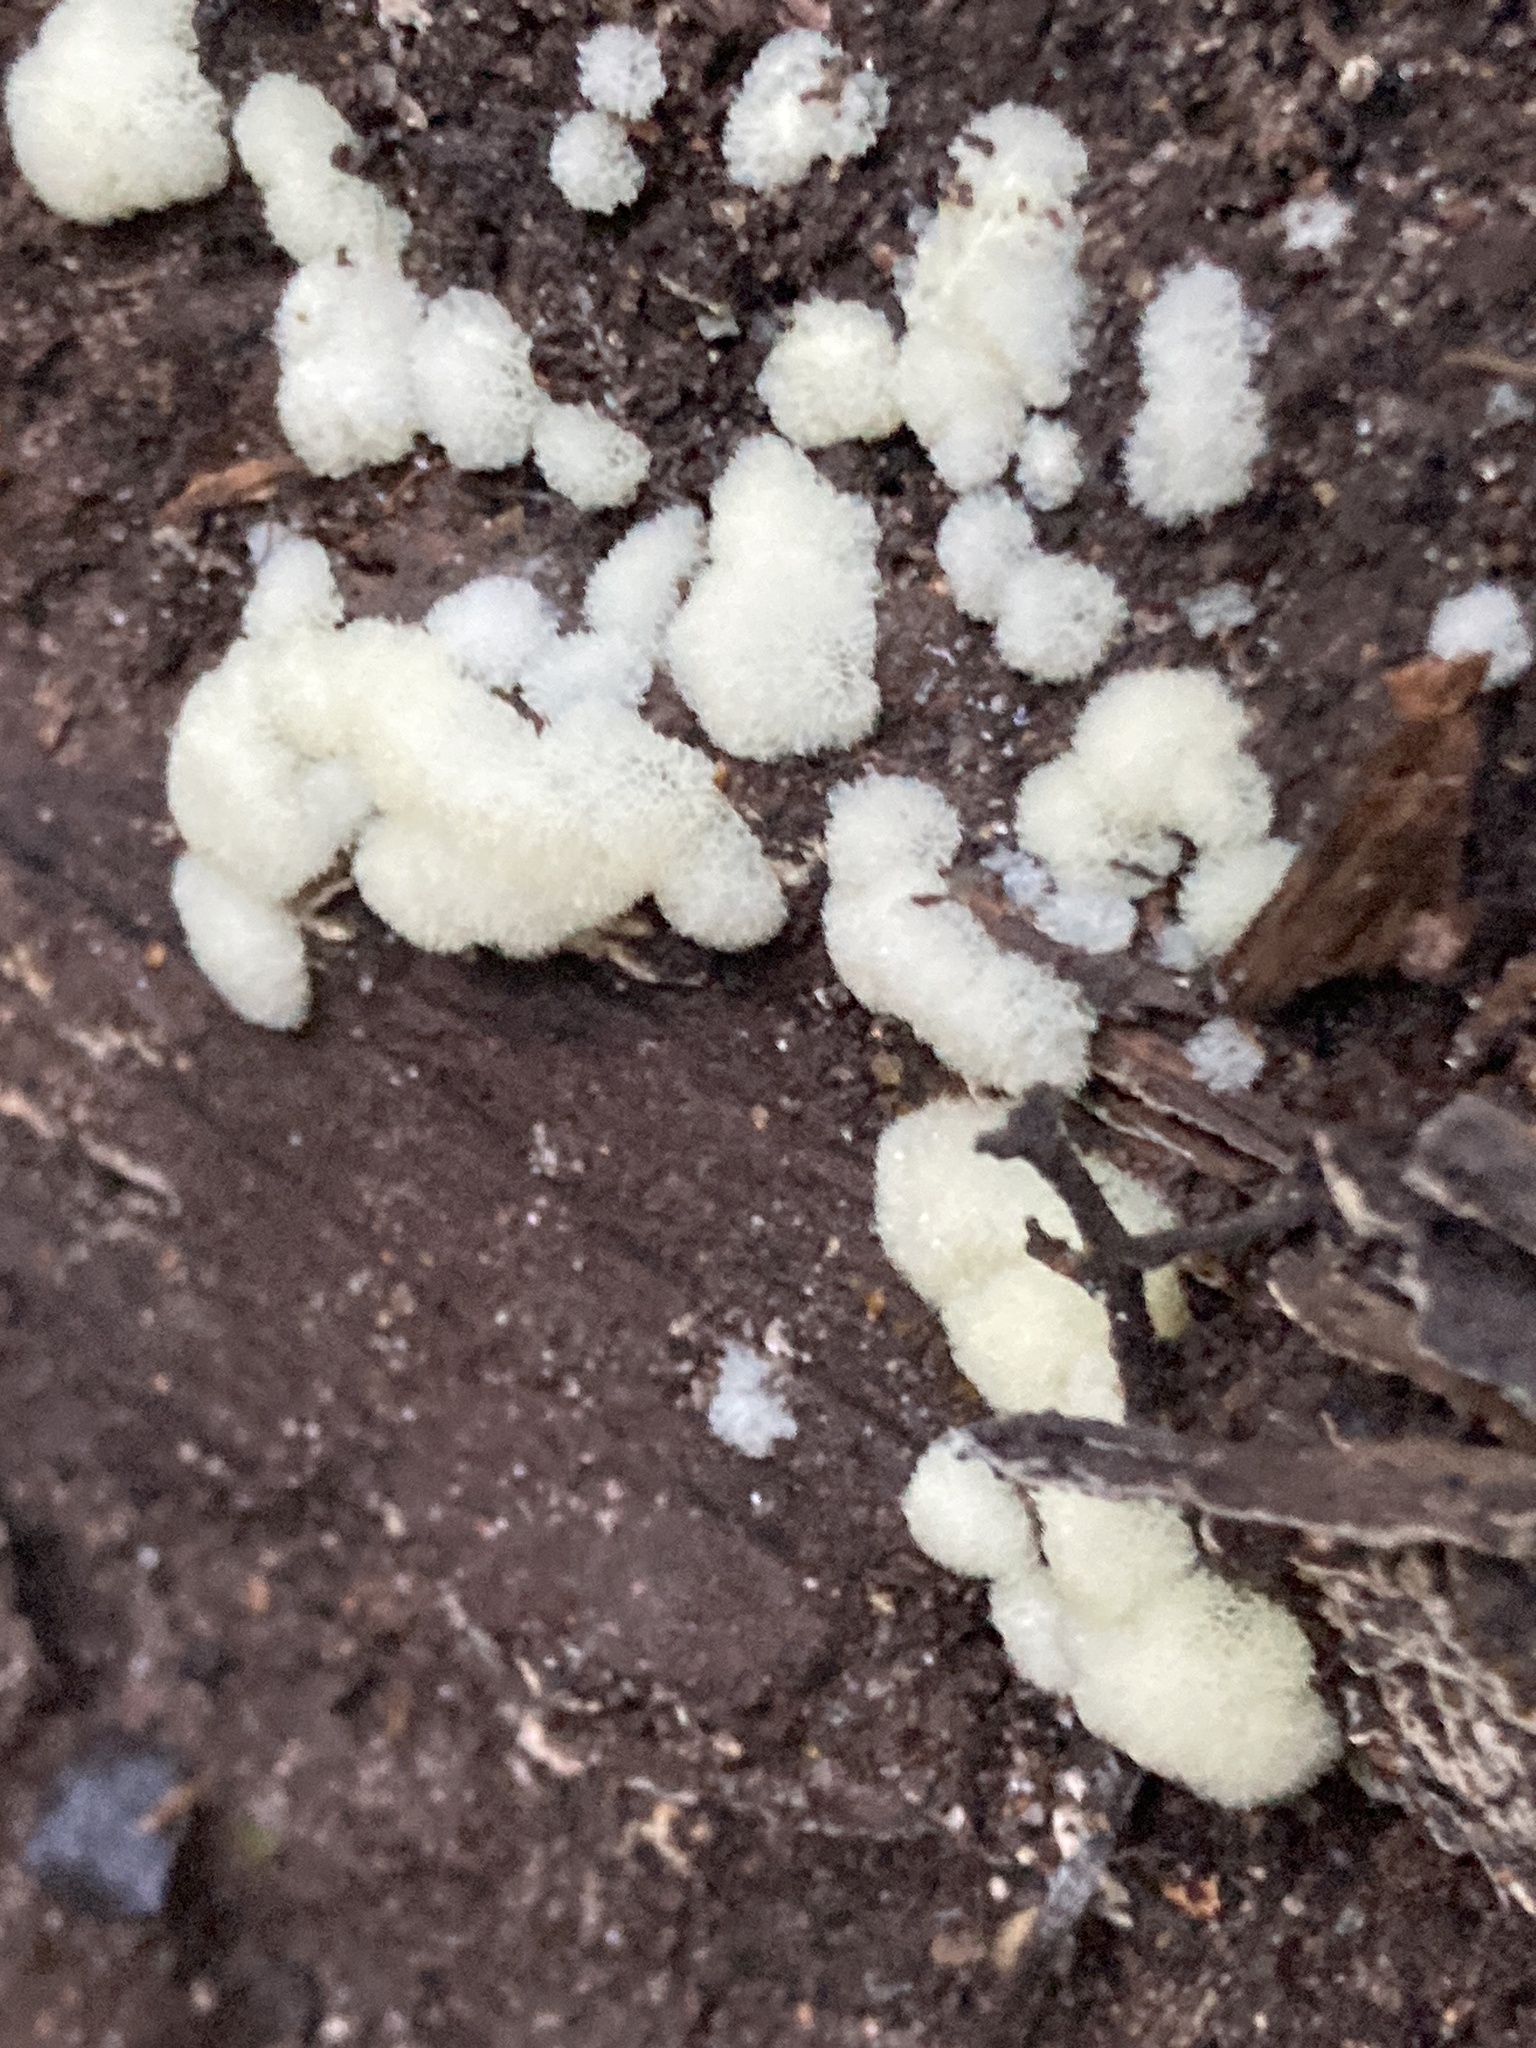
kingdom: Protozoa
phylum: Mycetozoa
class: Protosteliomycetes
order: Ceratiomyxales
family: Ceratiomyxaceae
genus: Ceratiomyxa
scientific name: Ceratiomyxa fruticulosa
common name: Honeycomb coral slime mold
